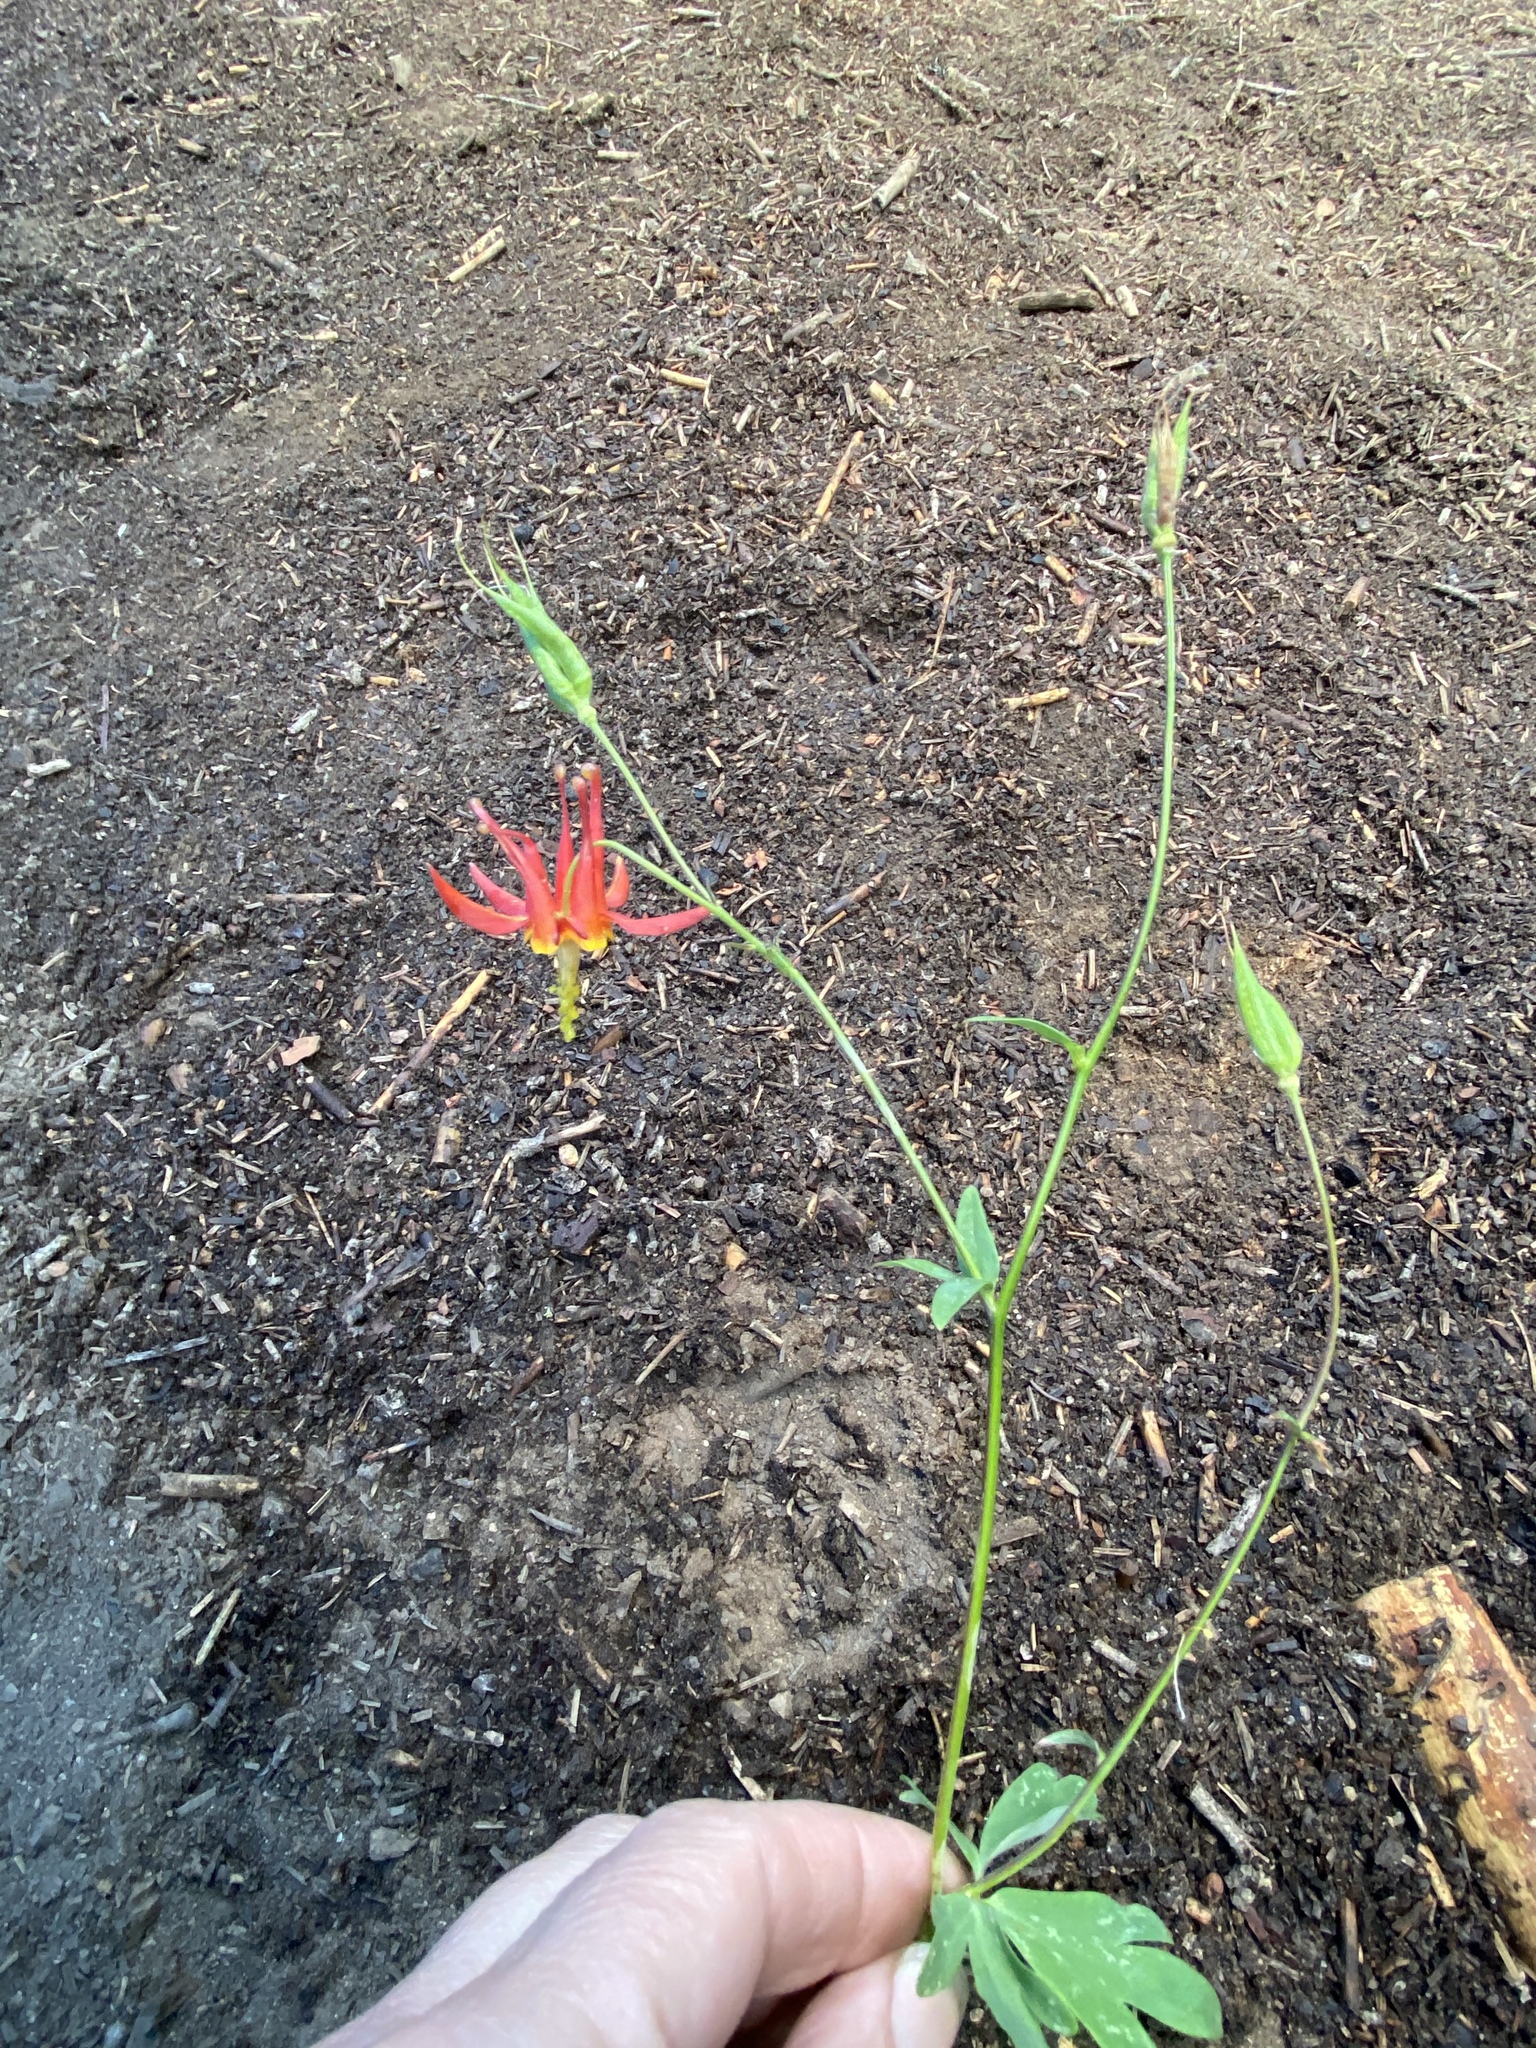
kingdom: Plantae
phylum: Tracheophyta
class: Magnoliopsida
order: Ranunculales
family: Ranunculaceae
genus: Aquilegia
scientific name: Aquilegia formosa
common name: Sitka columbine
